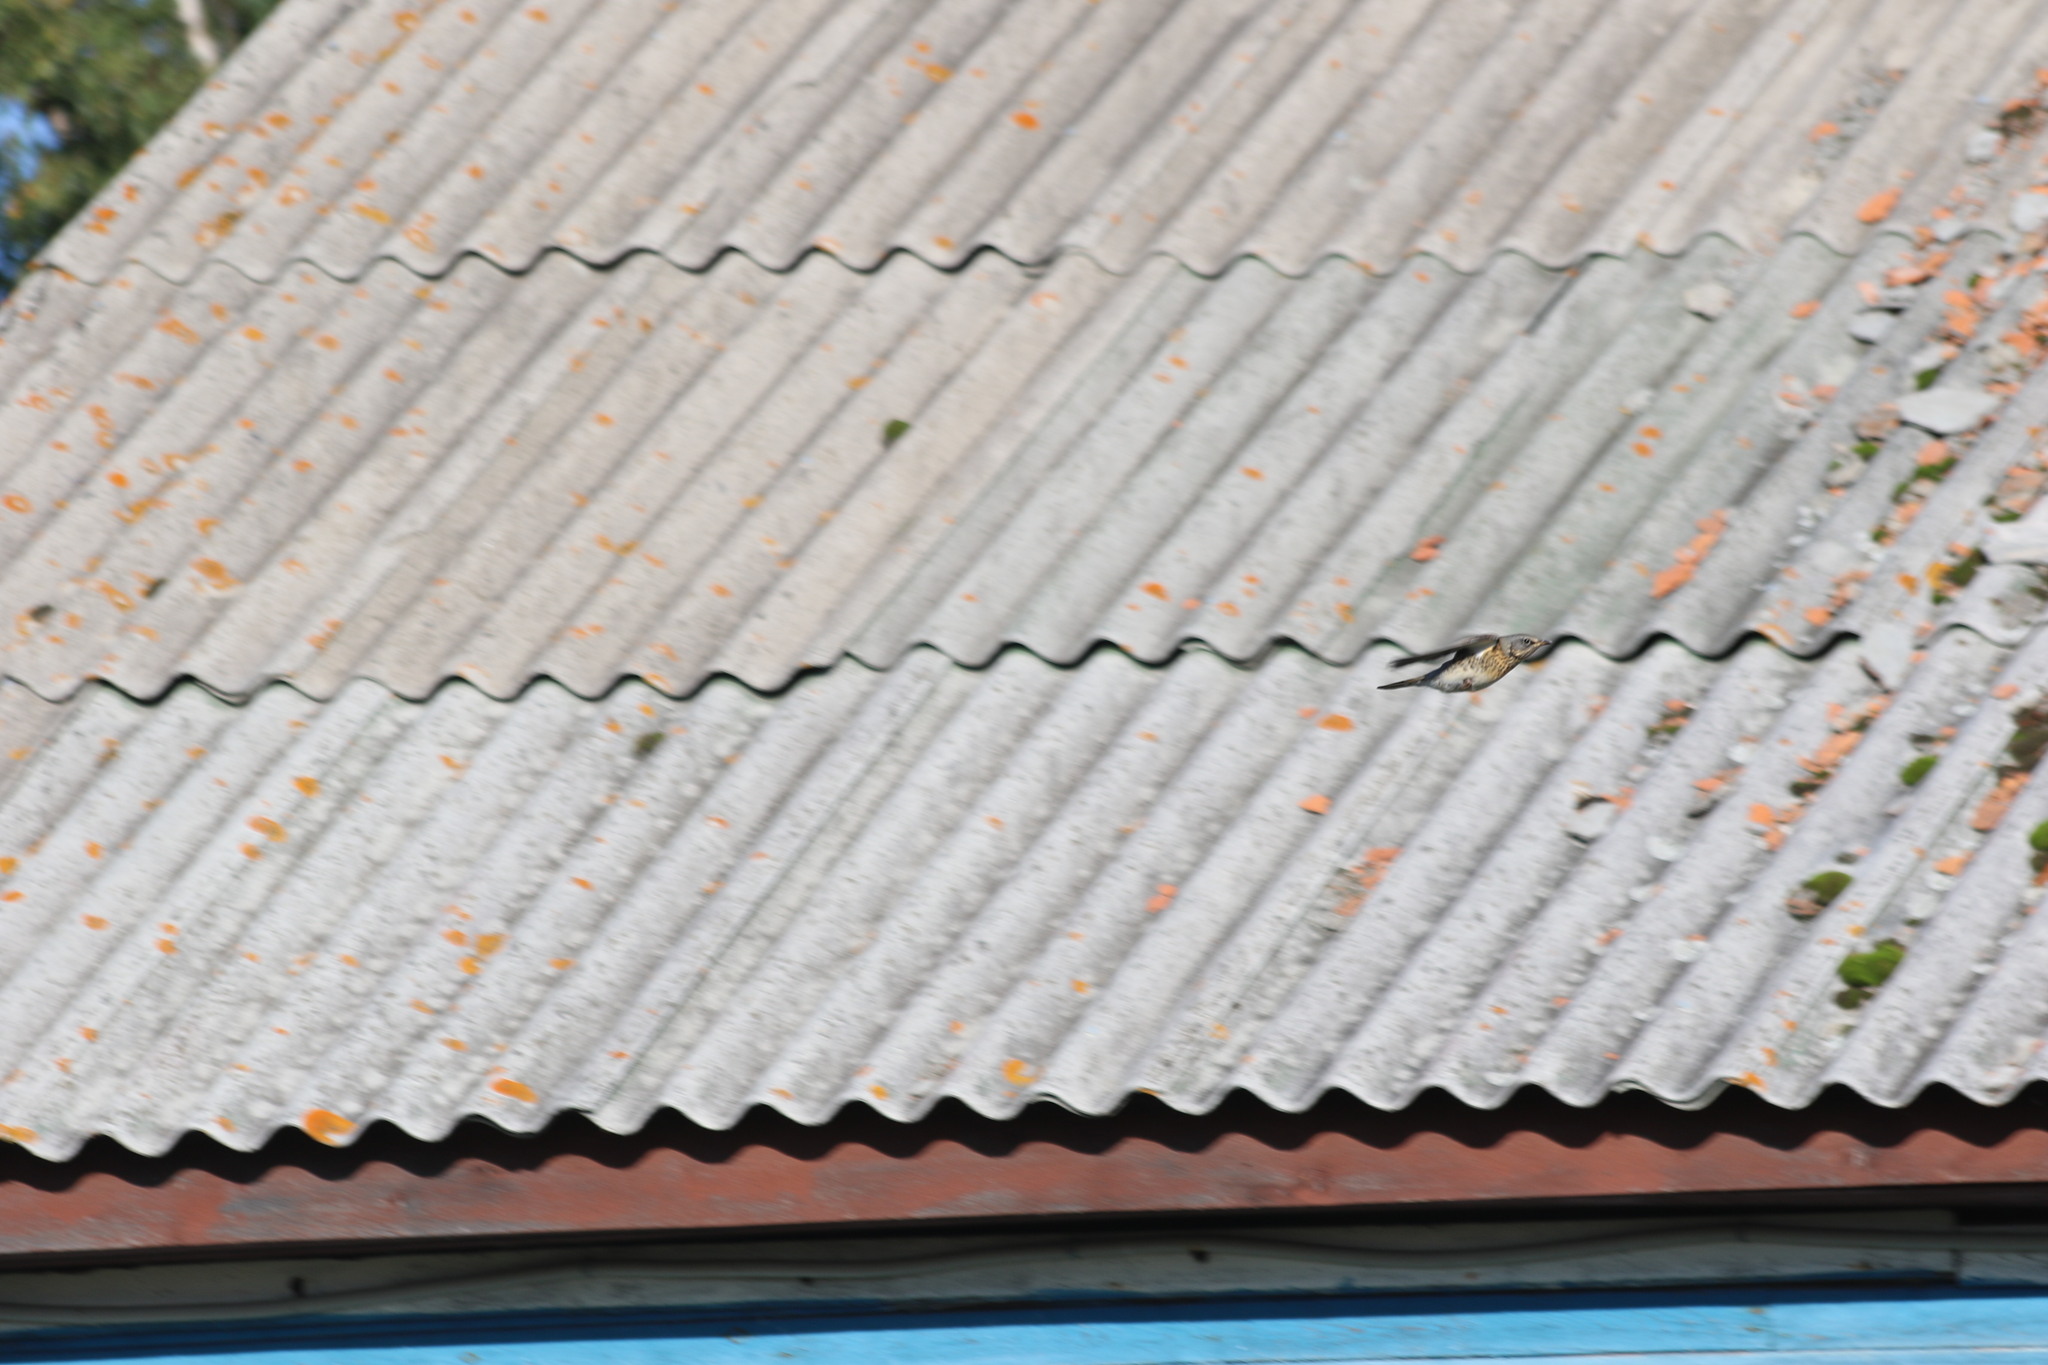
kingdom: Animalia
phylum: Chordata
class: Aves
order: Passeriformes
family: Turdidae
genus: Turdus
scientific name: Turdus pilaris
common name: Fieldfare
